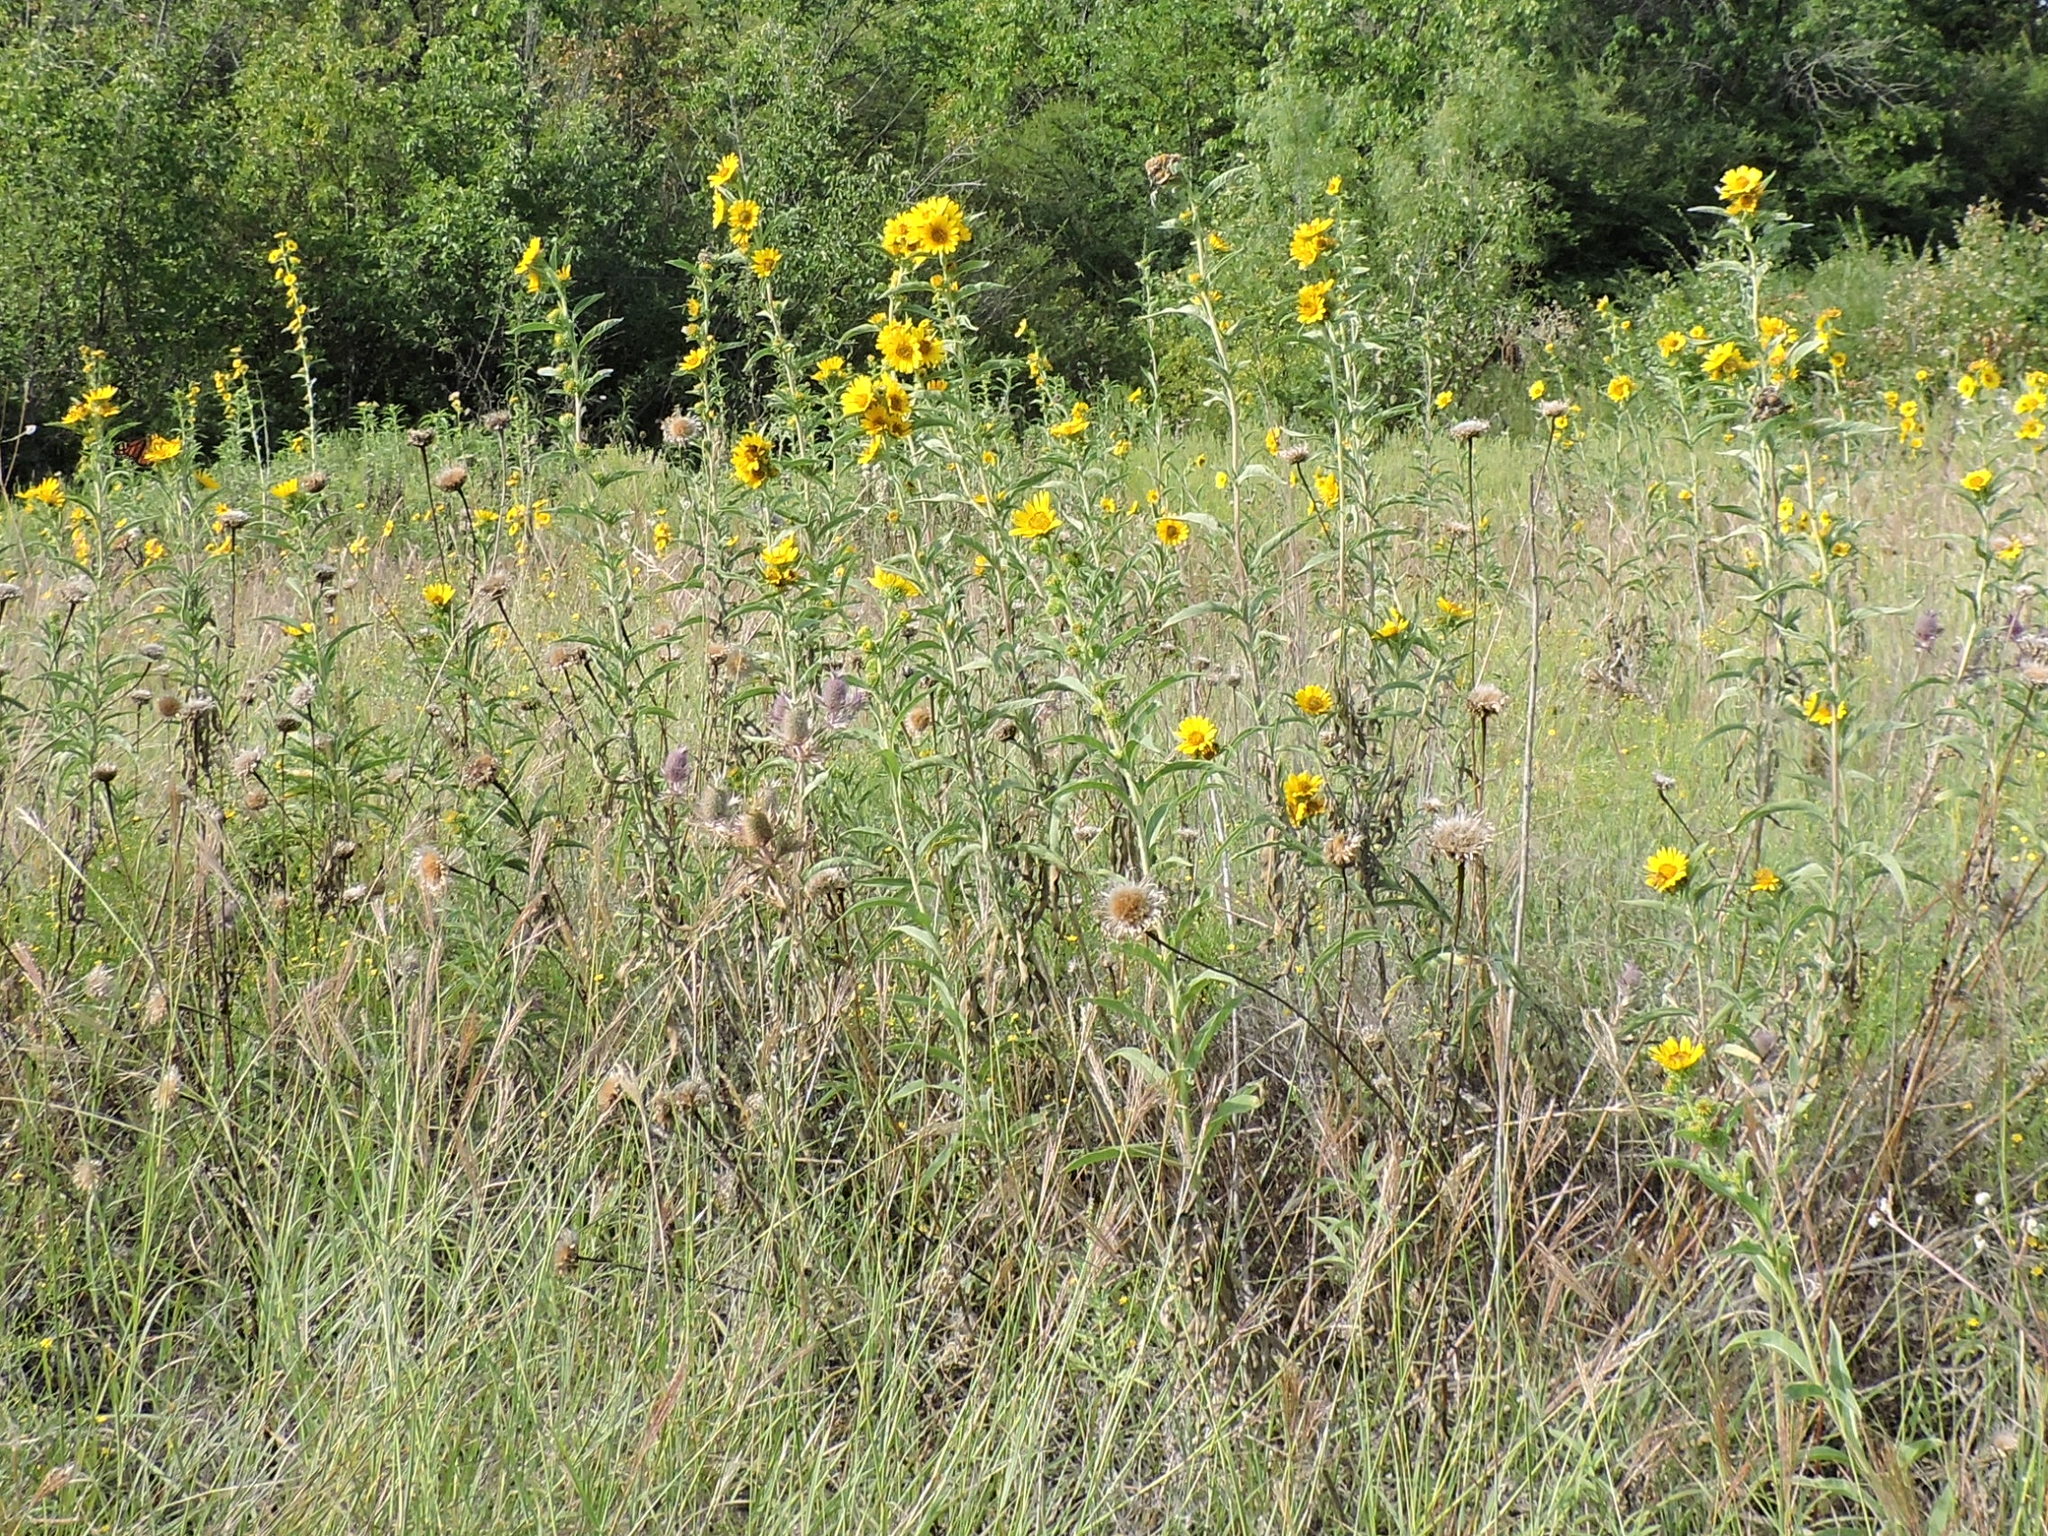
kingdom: Plantae
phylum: Tracheophyta
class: Magnoliopsida
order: Asterales
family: Asteraceae
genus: Helianthus
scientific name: Helianthus maximiliani
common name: Maximilian's sunflower
